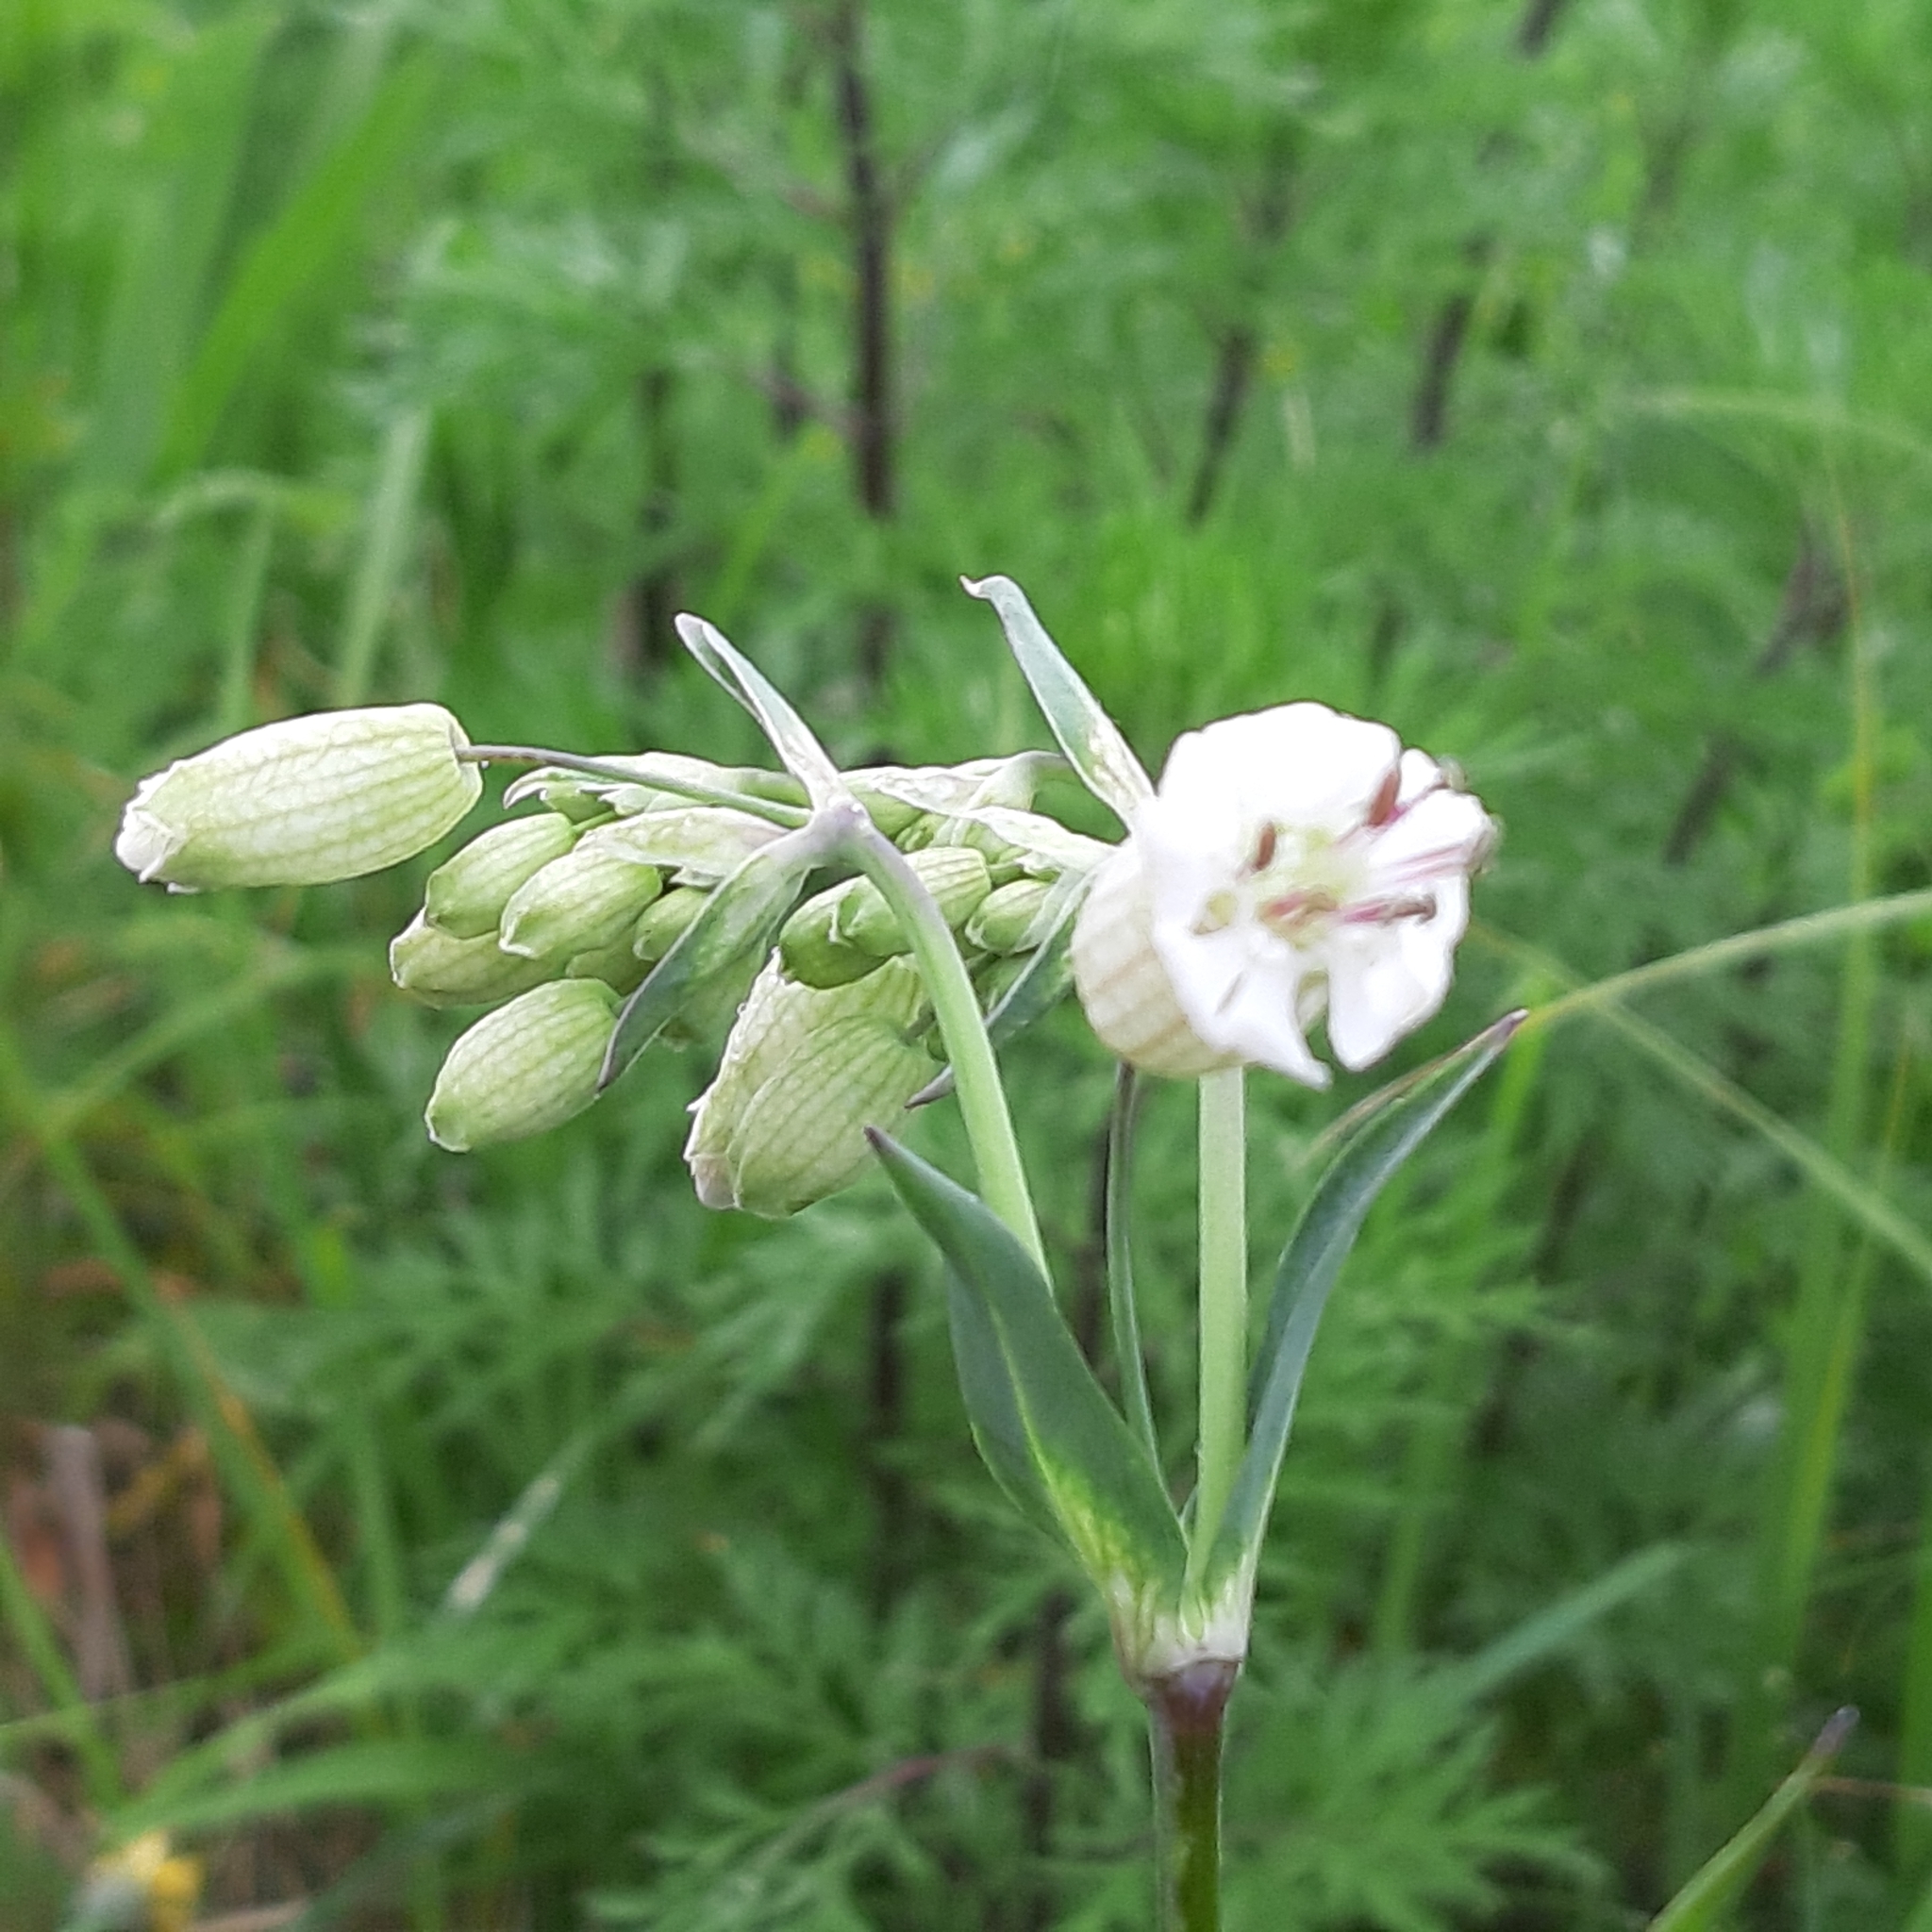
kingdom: Plantae
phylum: Tracheophyta
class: Magnoliopsida
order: Caryophyllales
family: Caryophyllaceae
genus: Silene
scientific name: Silene vulgaris
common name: Bladder campion
